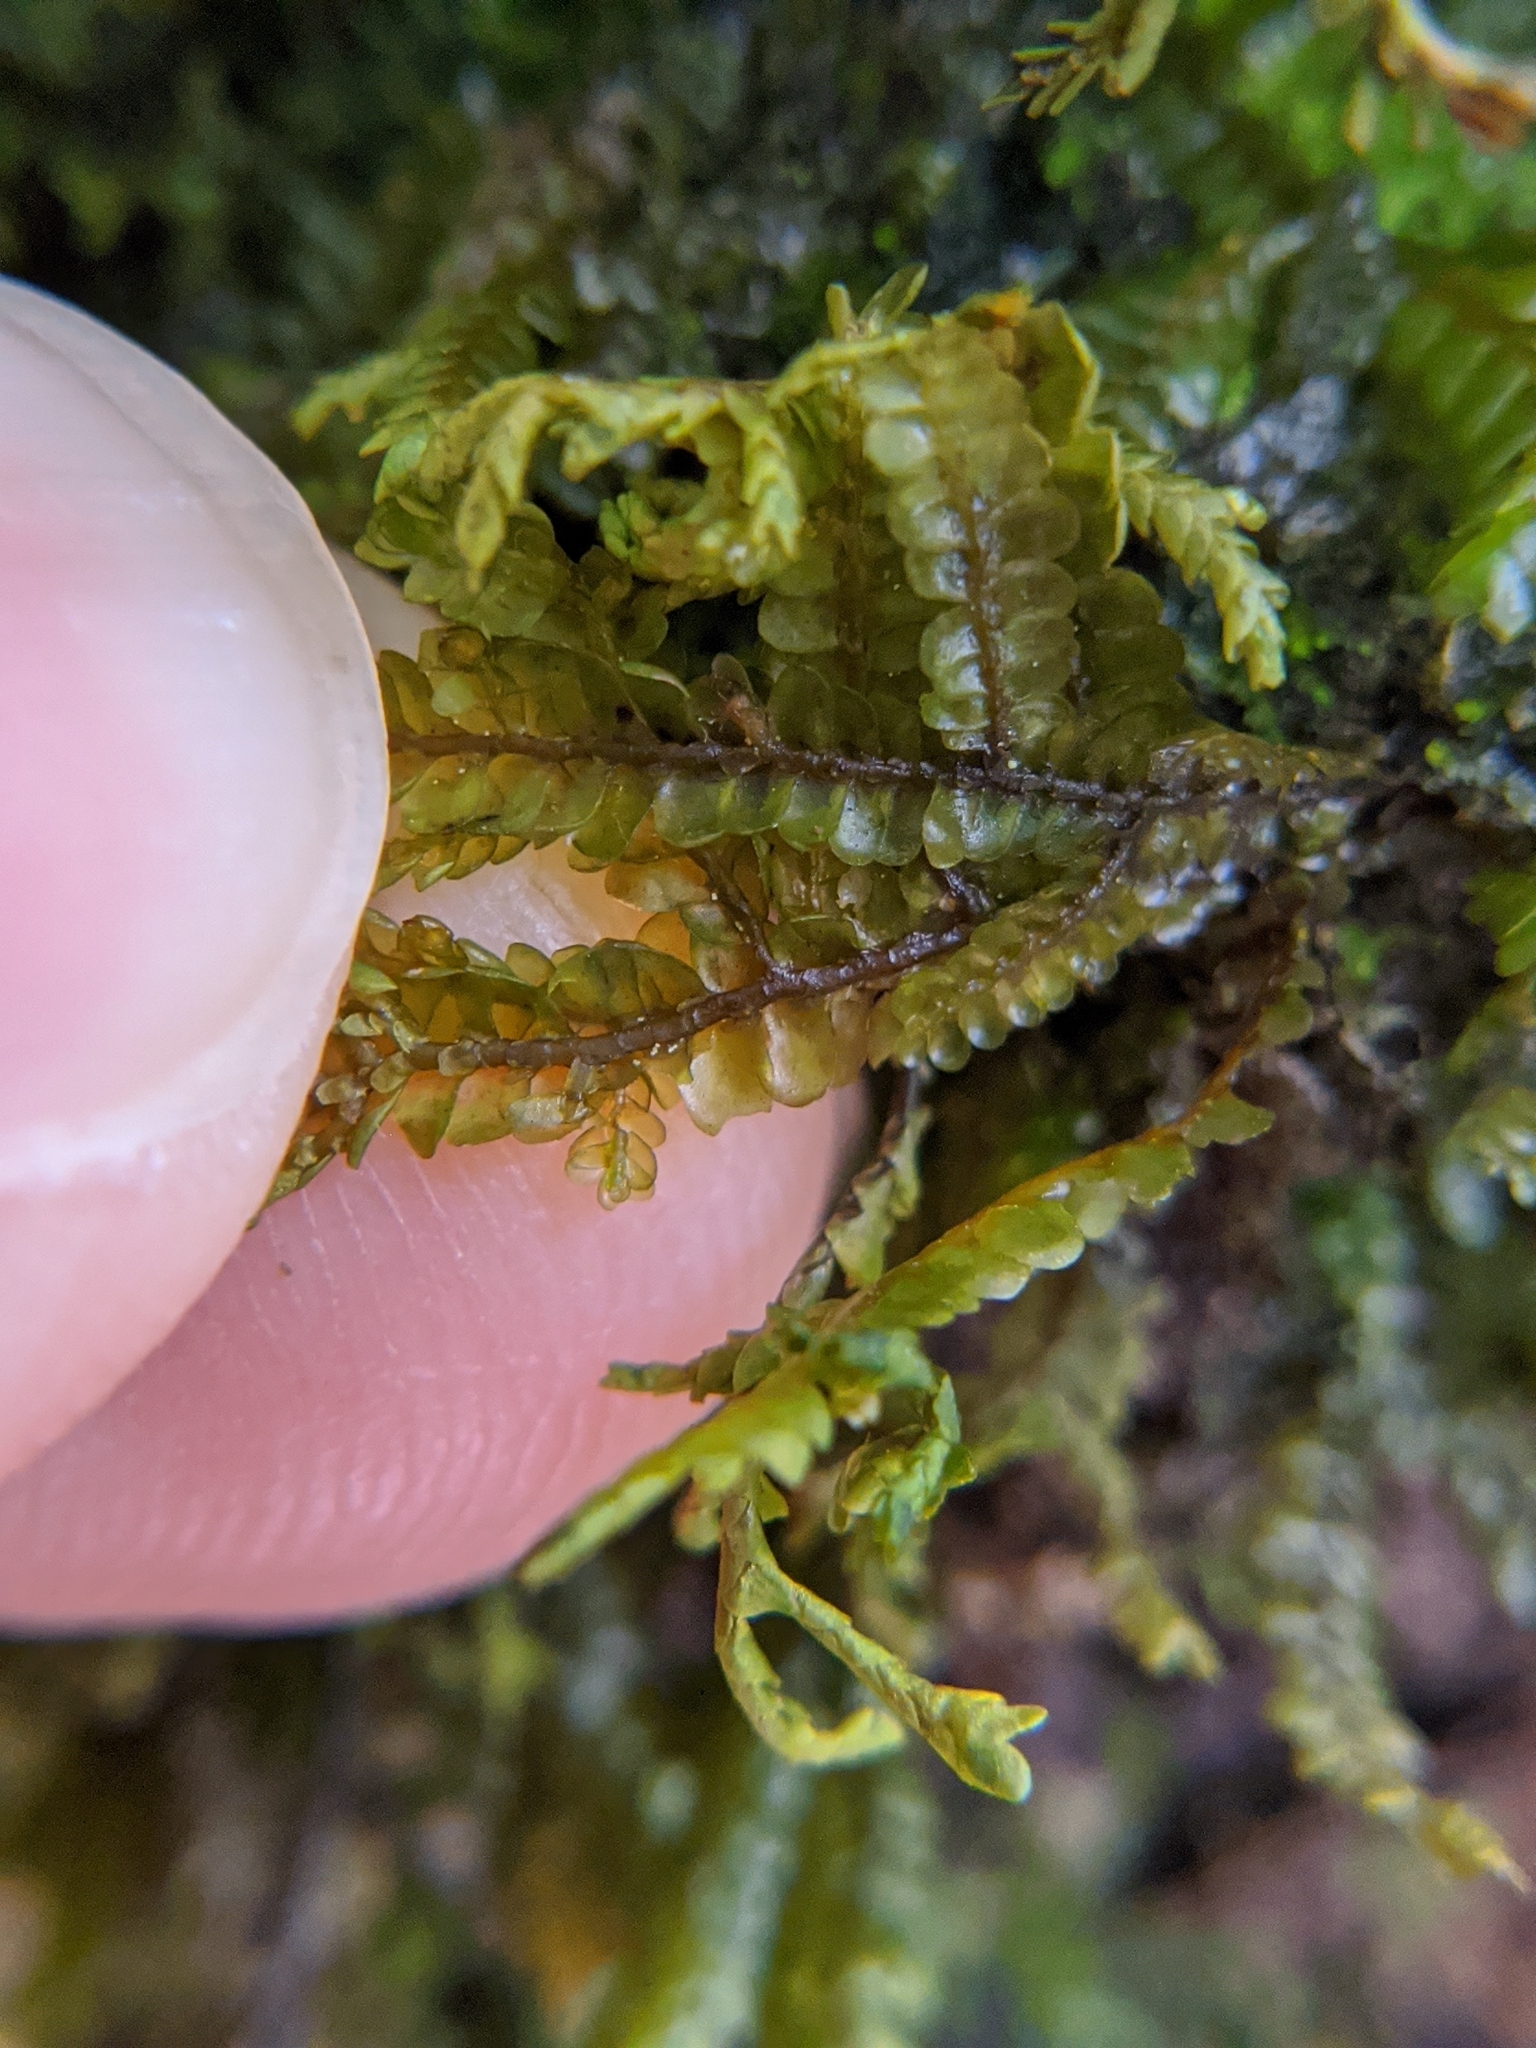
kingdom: Plantae
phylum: Marchantiophyta
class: Jungermanniopsida
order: Porellales
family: Porellaceae
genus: Porella
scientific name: Porella pinnata
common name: Pinnate scalewort
